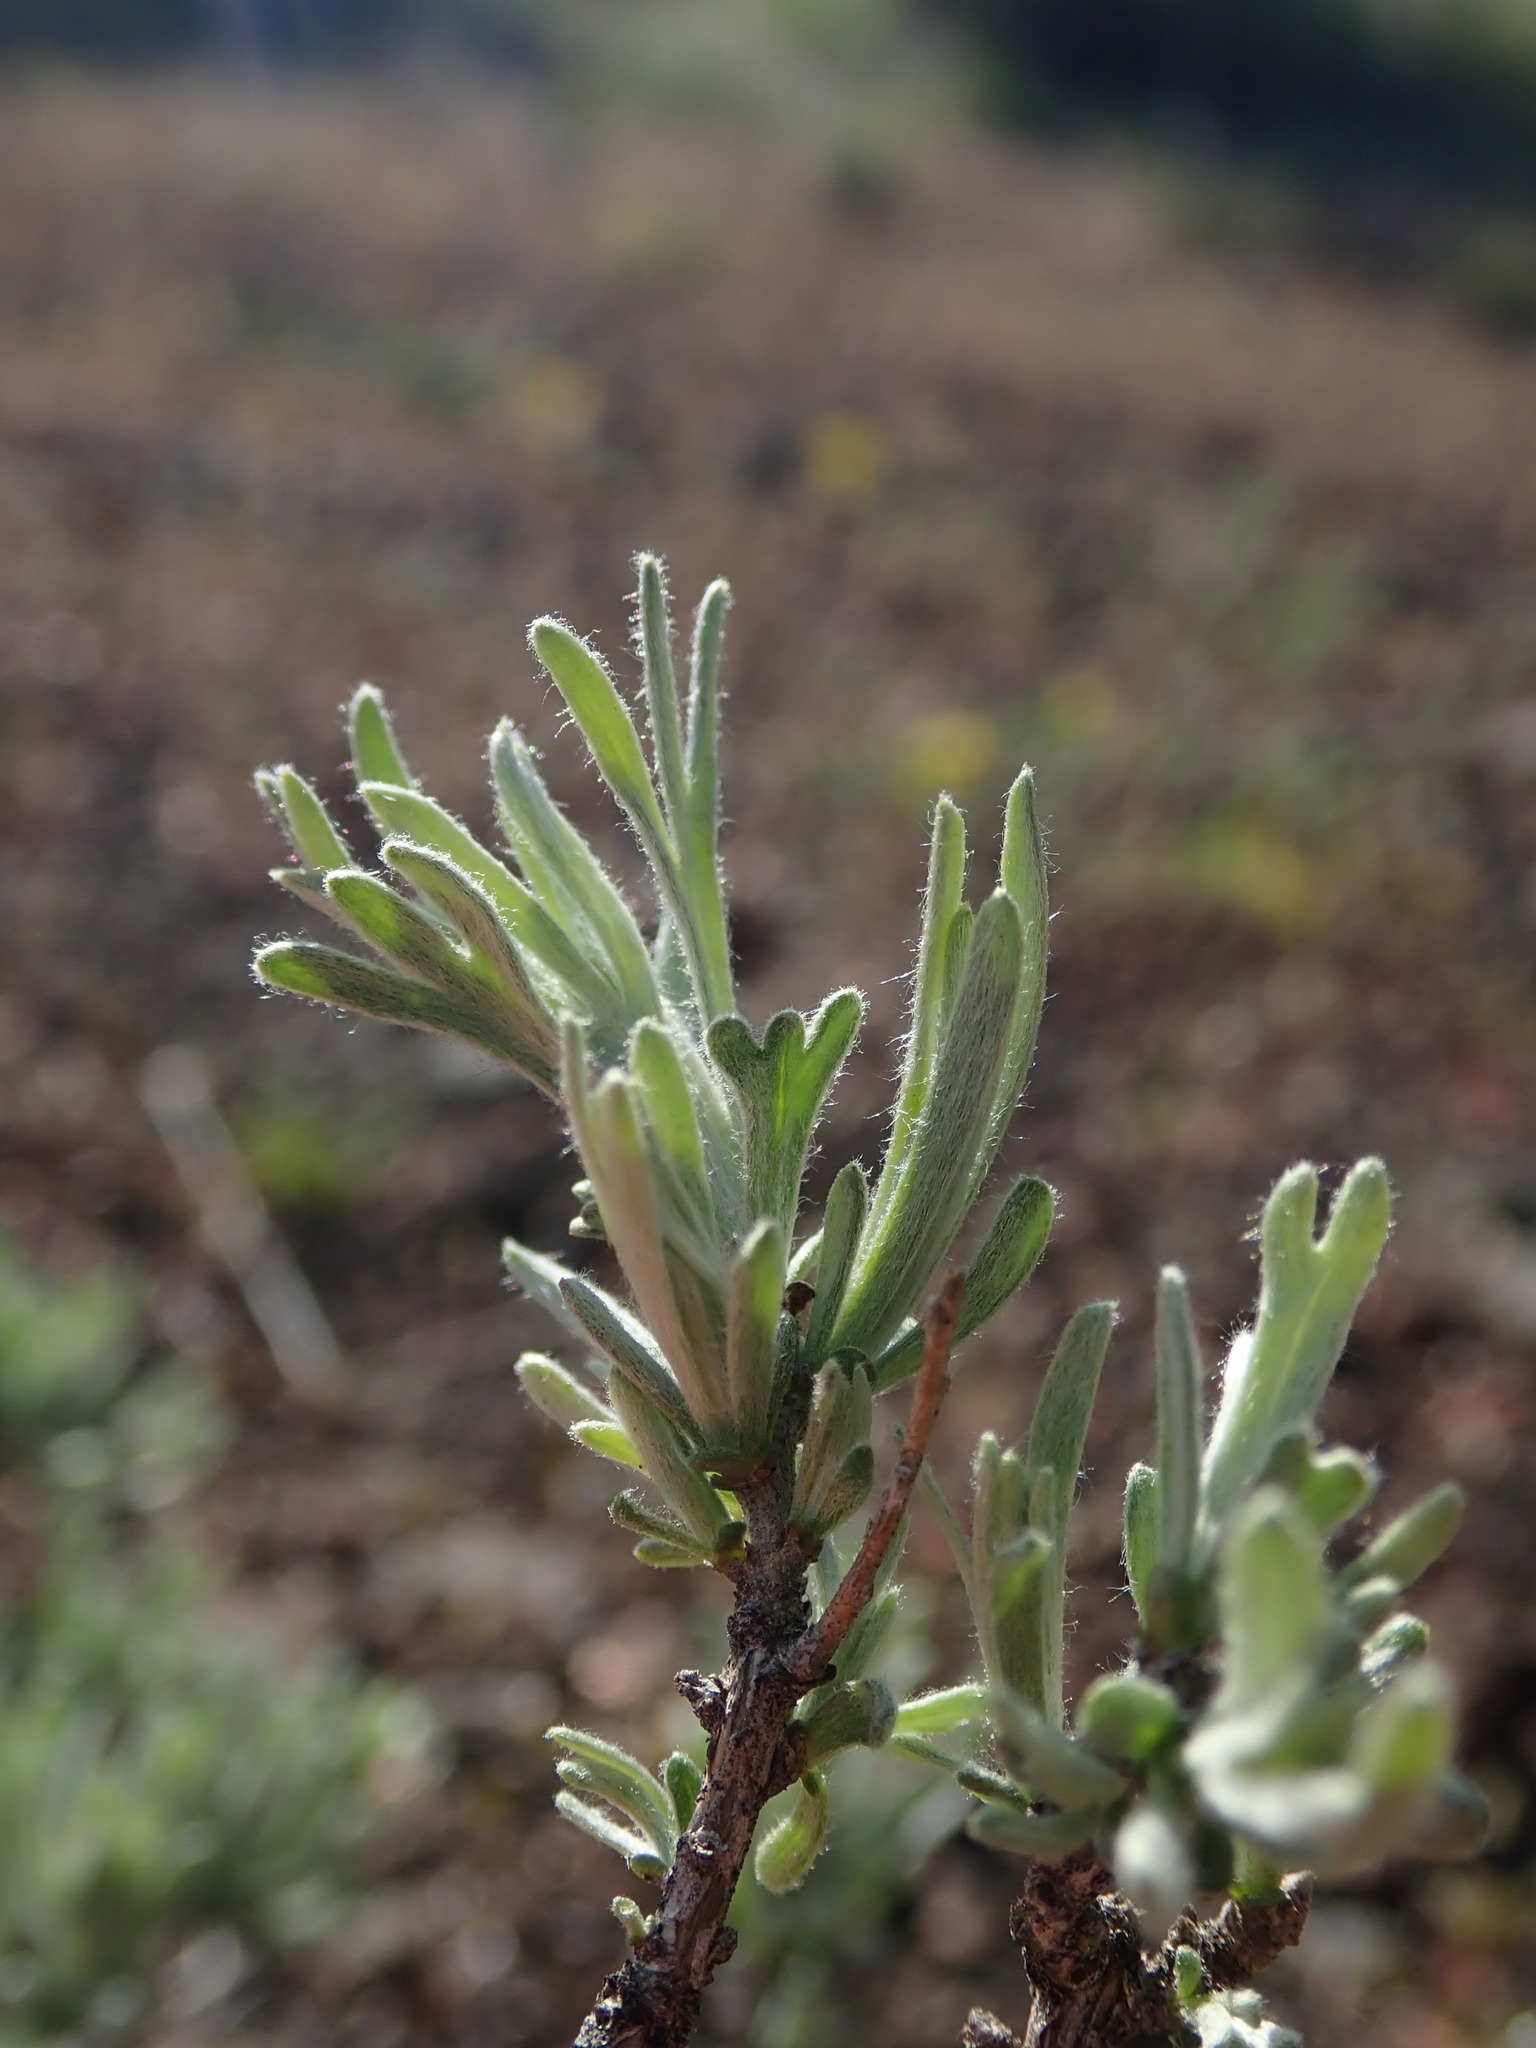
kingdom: Plantae
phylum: Tracheophyta
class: Magnoliopsida
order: Asterales
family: Asteraceae
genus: Artemisia
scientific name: Artemisia rigida
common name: Scabland sagebrush
